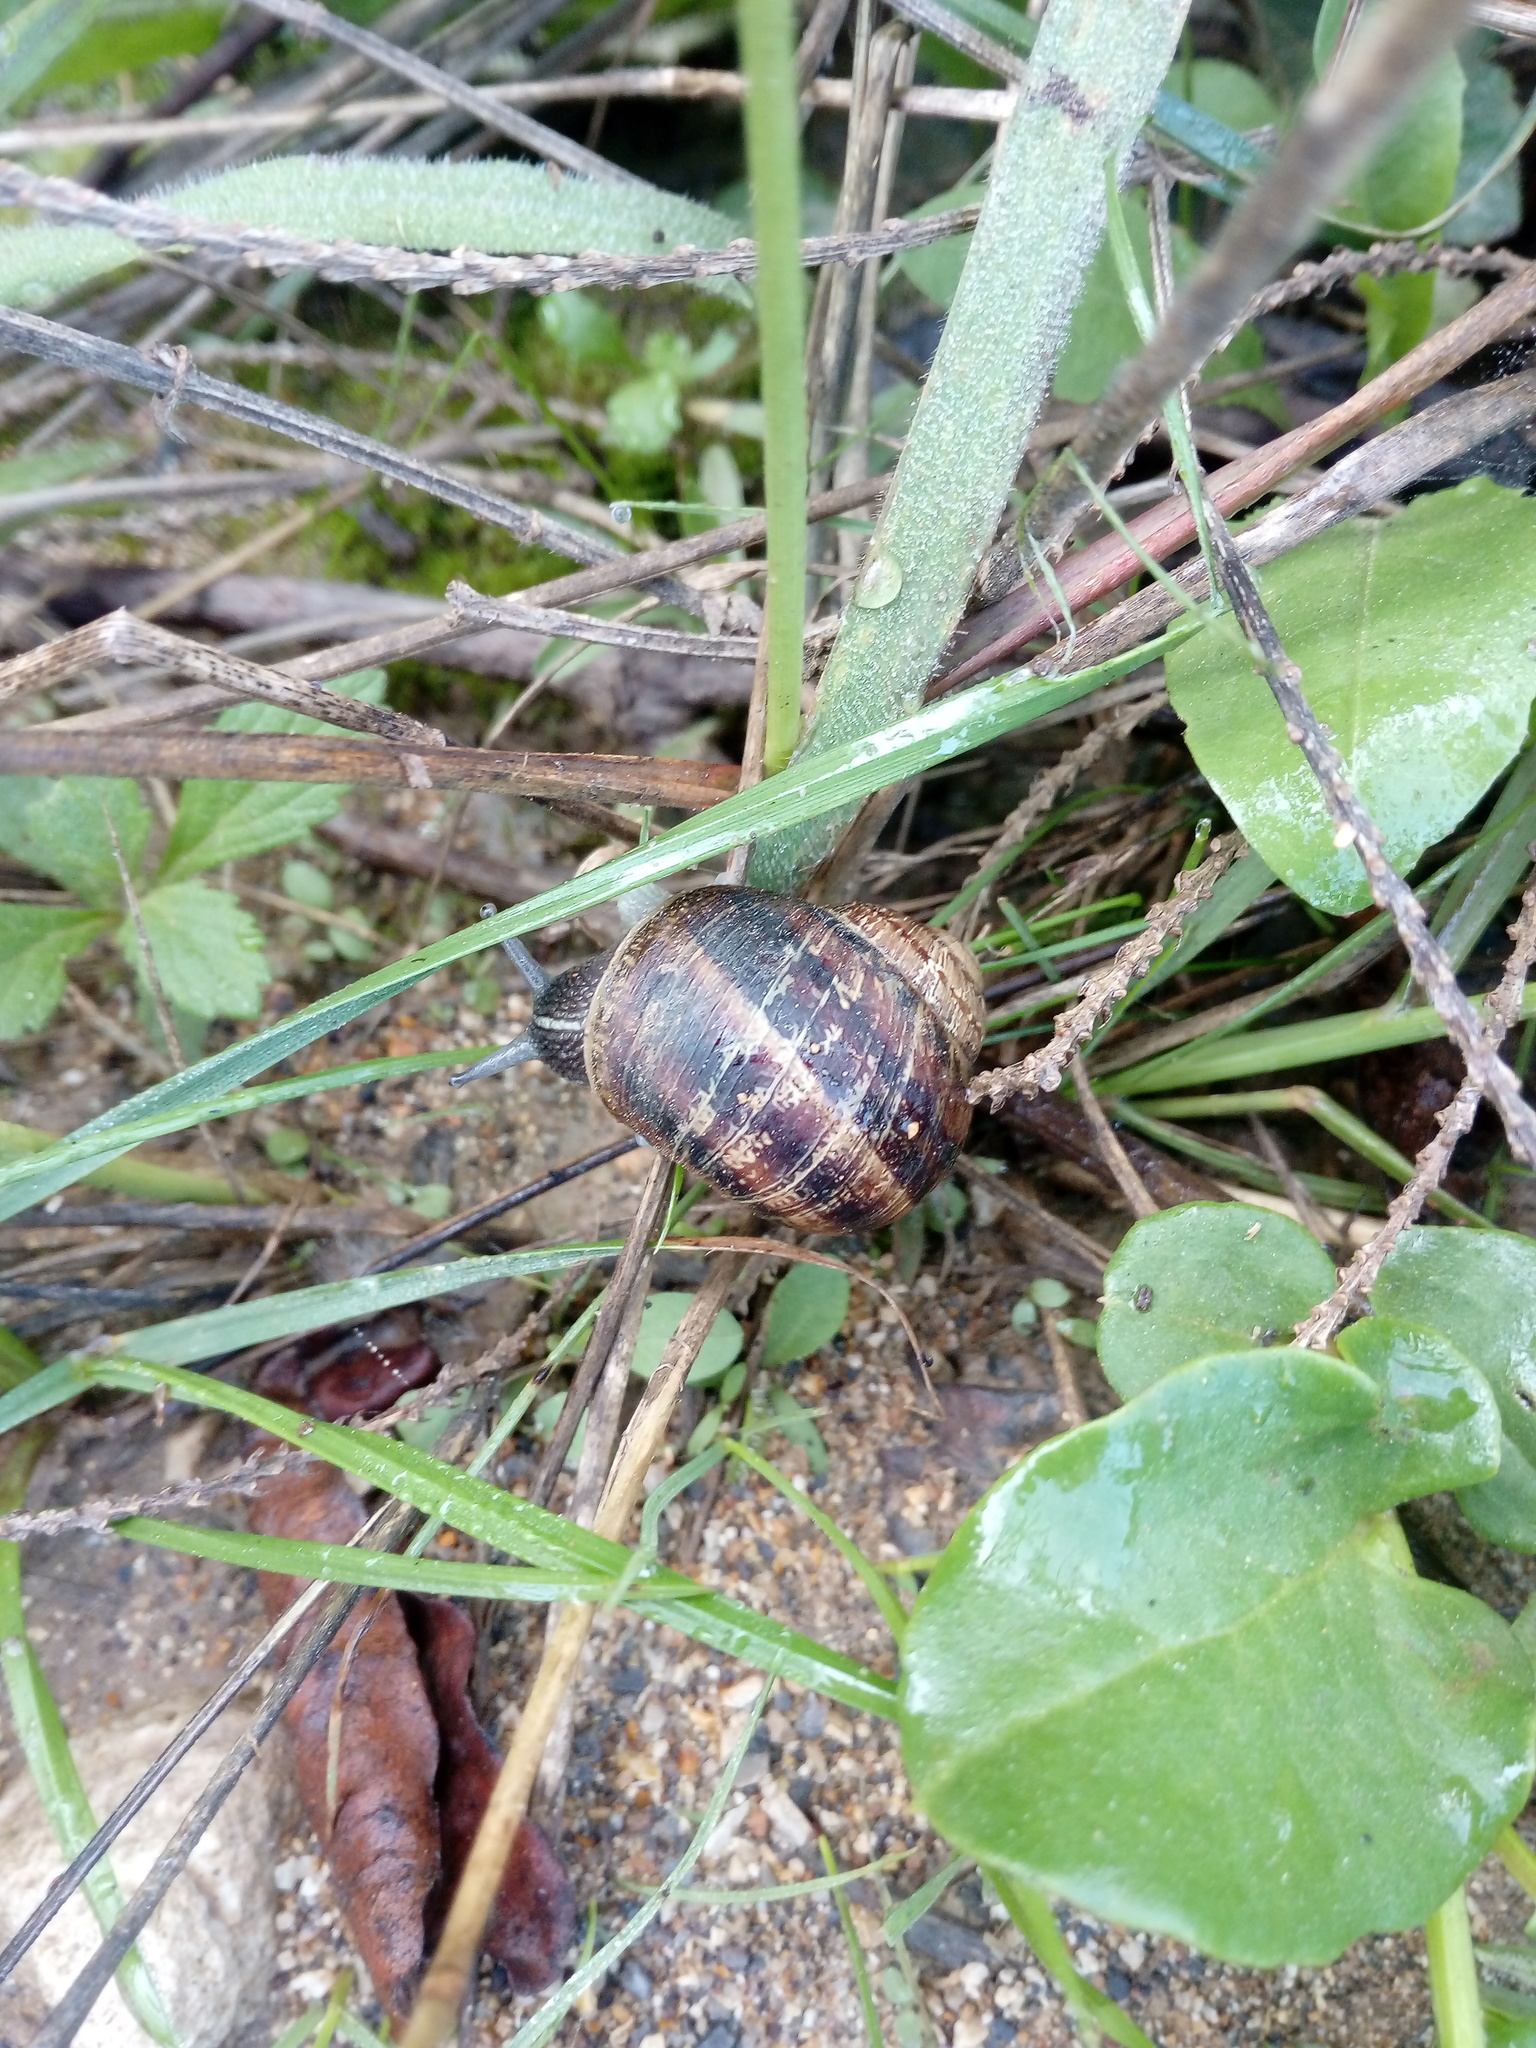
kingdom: Animalia
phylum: Mollusca
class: Gastropoda
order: Stylommatophora
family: Helicidae
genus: Cornu
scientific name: Cornu aspersum
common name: Brown garden snail
